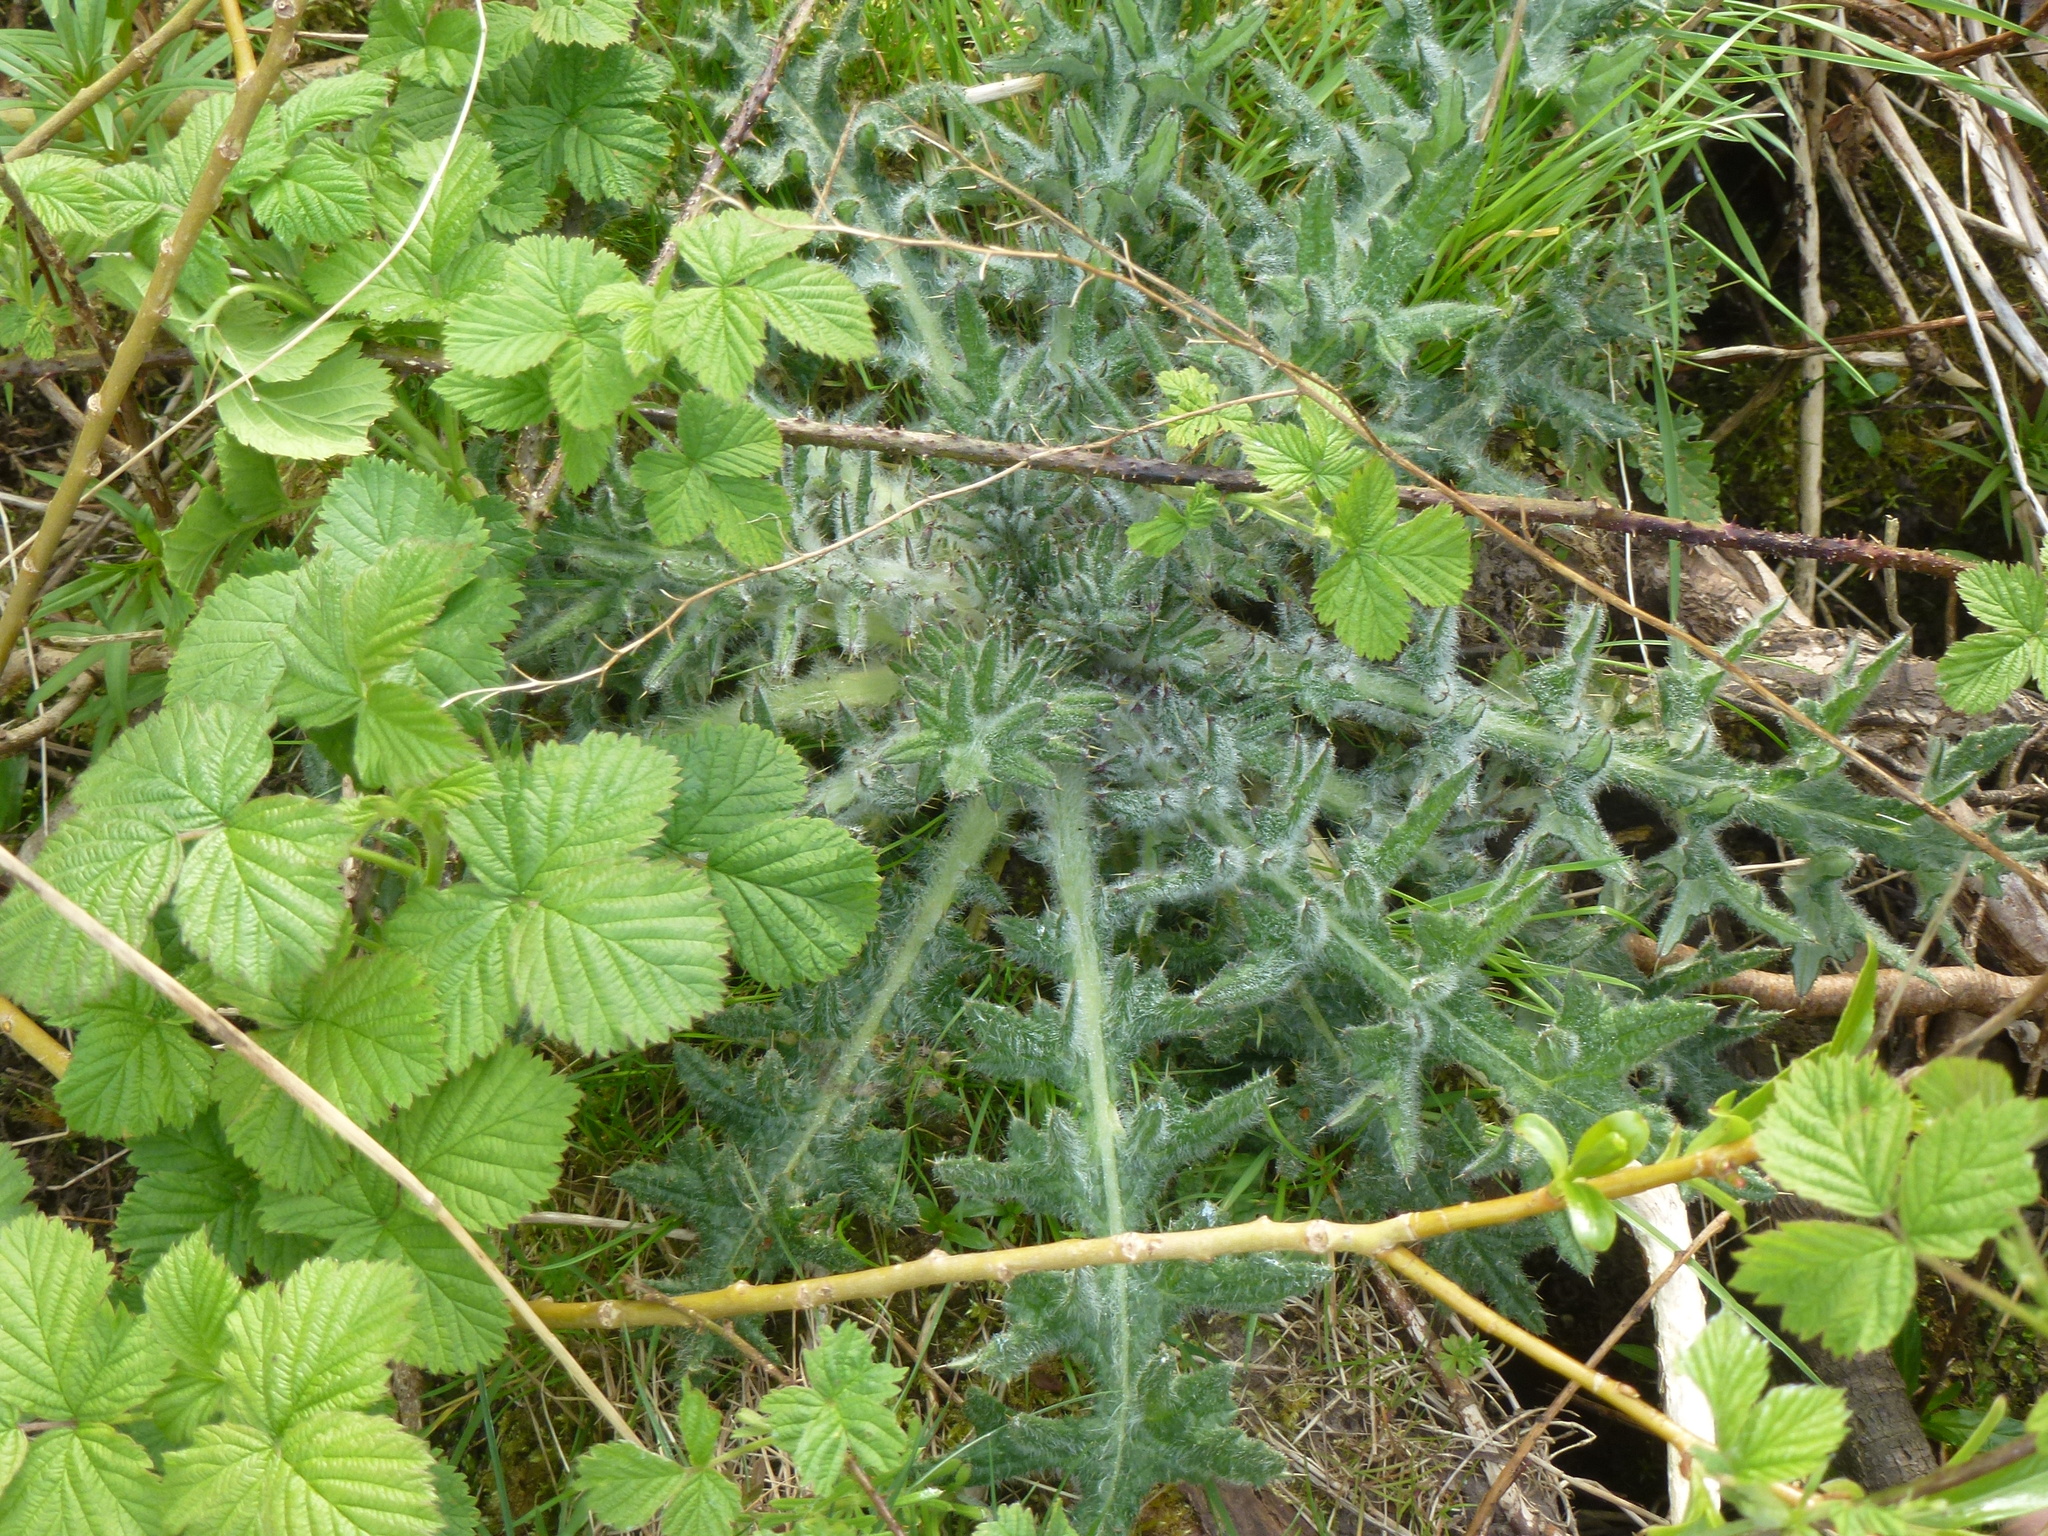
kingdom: Plantae
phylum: Tracheophyta
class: Magnoliopsida
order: Asterales
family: Asteraceae
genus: Cirsium
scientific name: Cirsium vulgare
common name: Bull thistle
